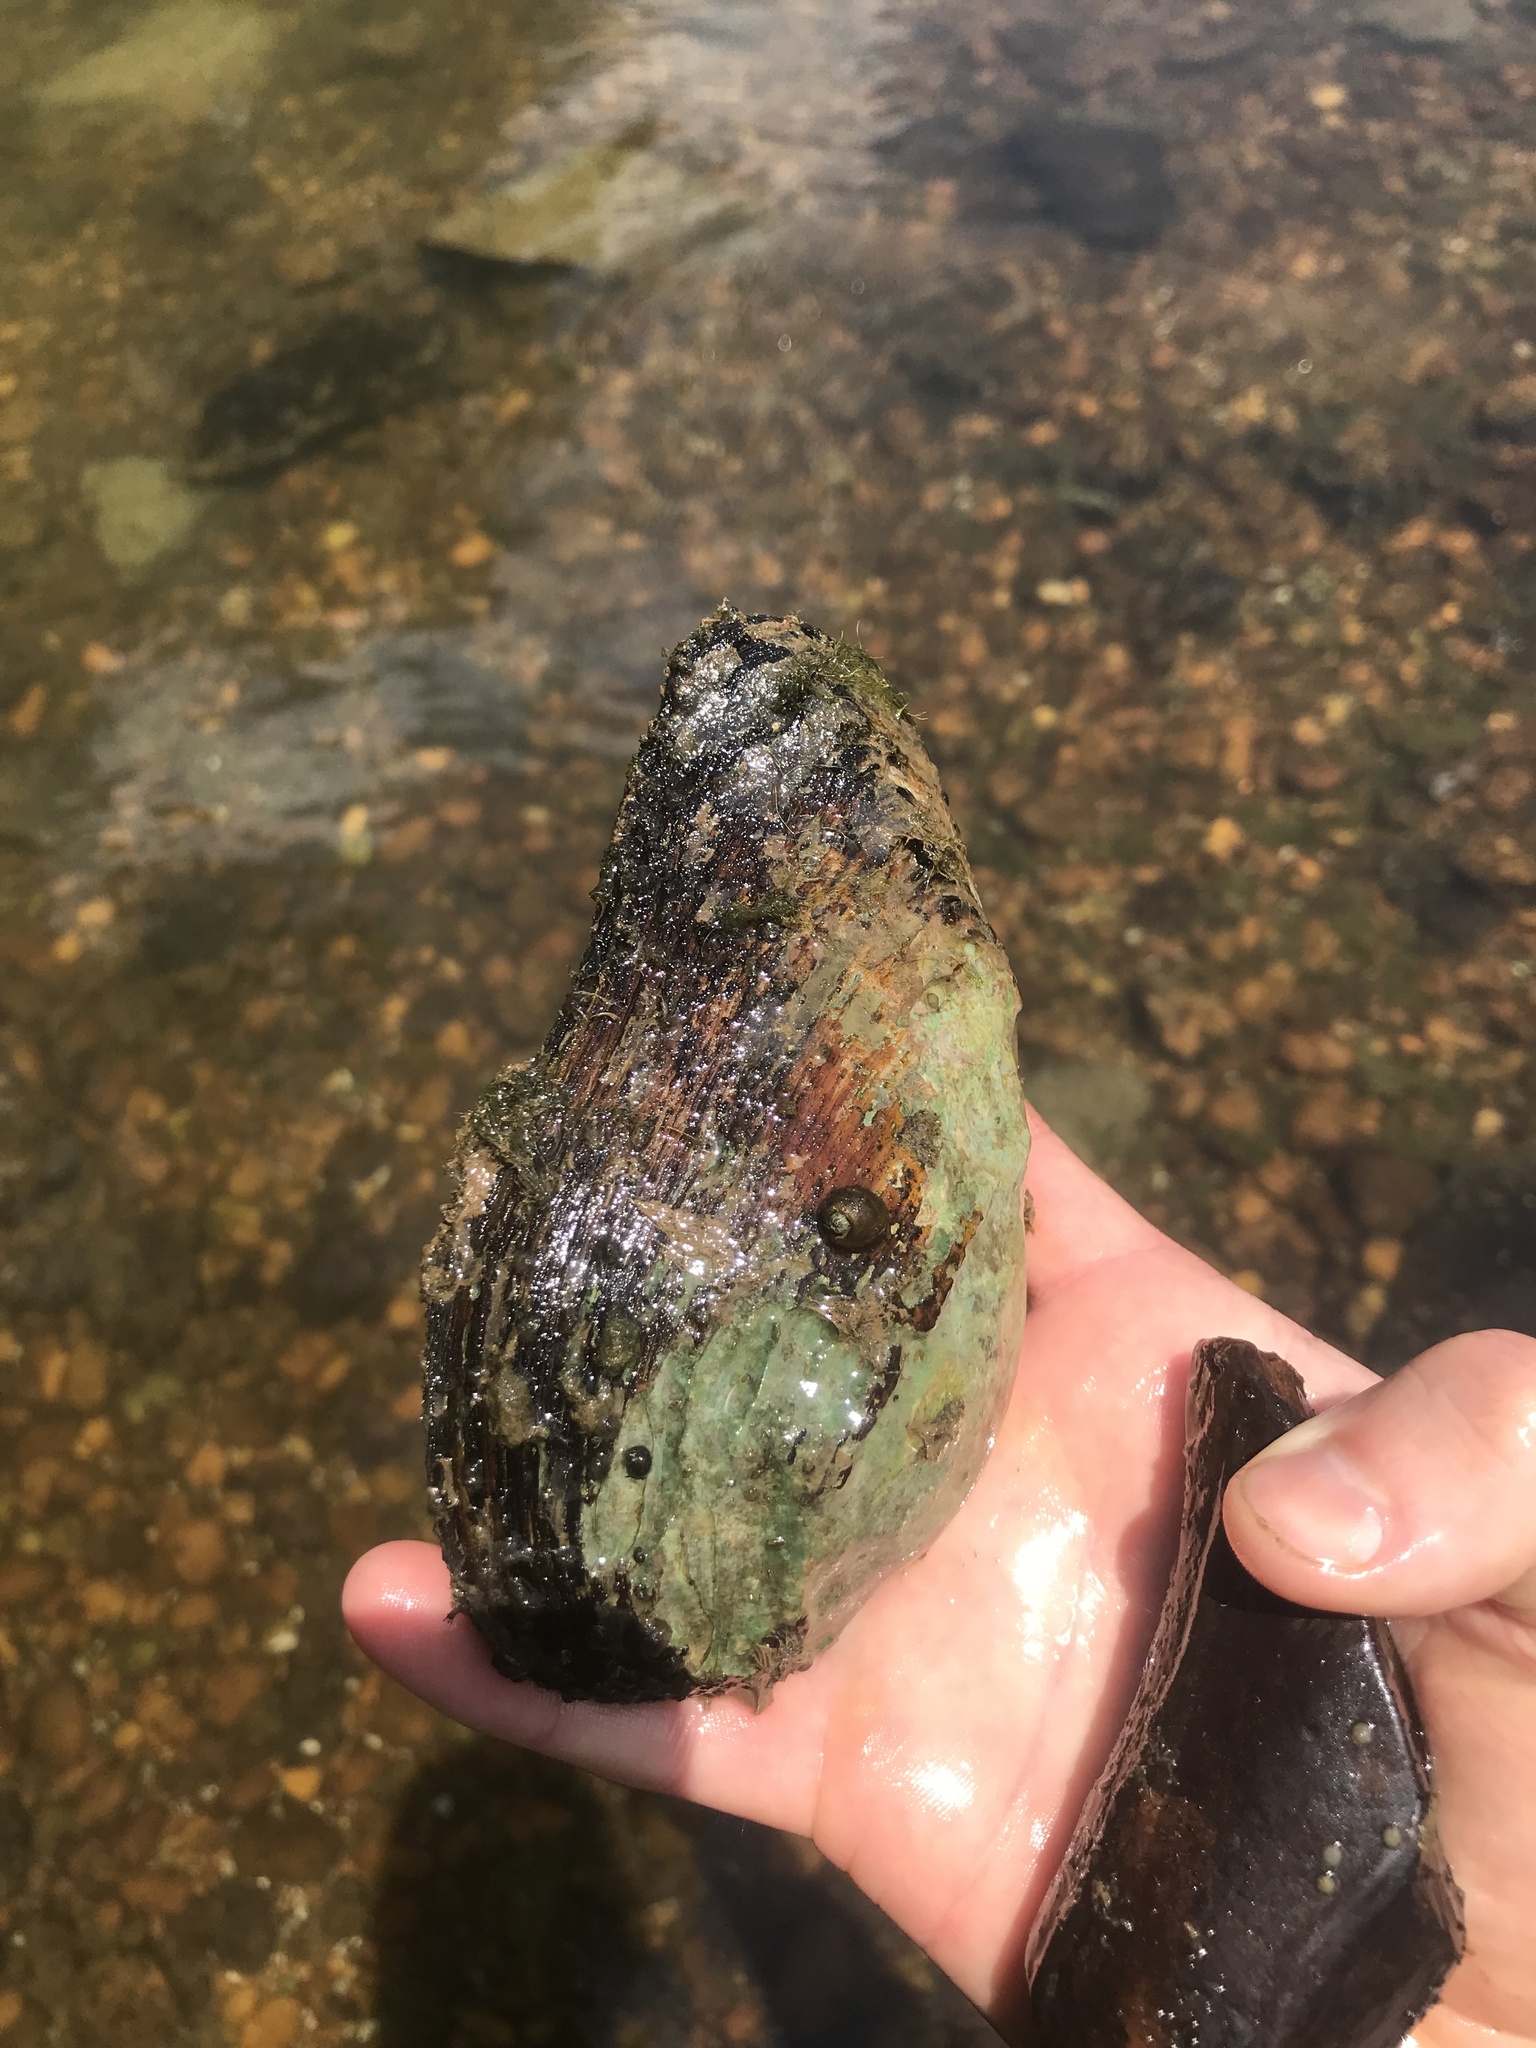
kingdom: Animalia
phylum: Mollusca
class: Bivalvia
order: Unionida
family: Unionidae
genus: Elliptio
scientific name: Elliptio crassidens
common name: Blue ham
